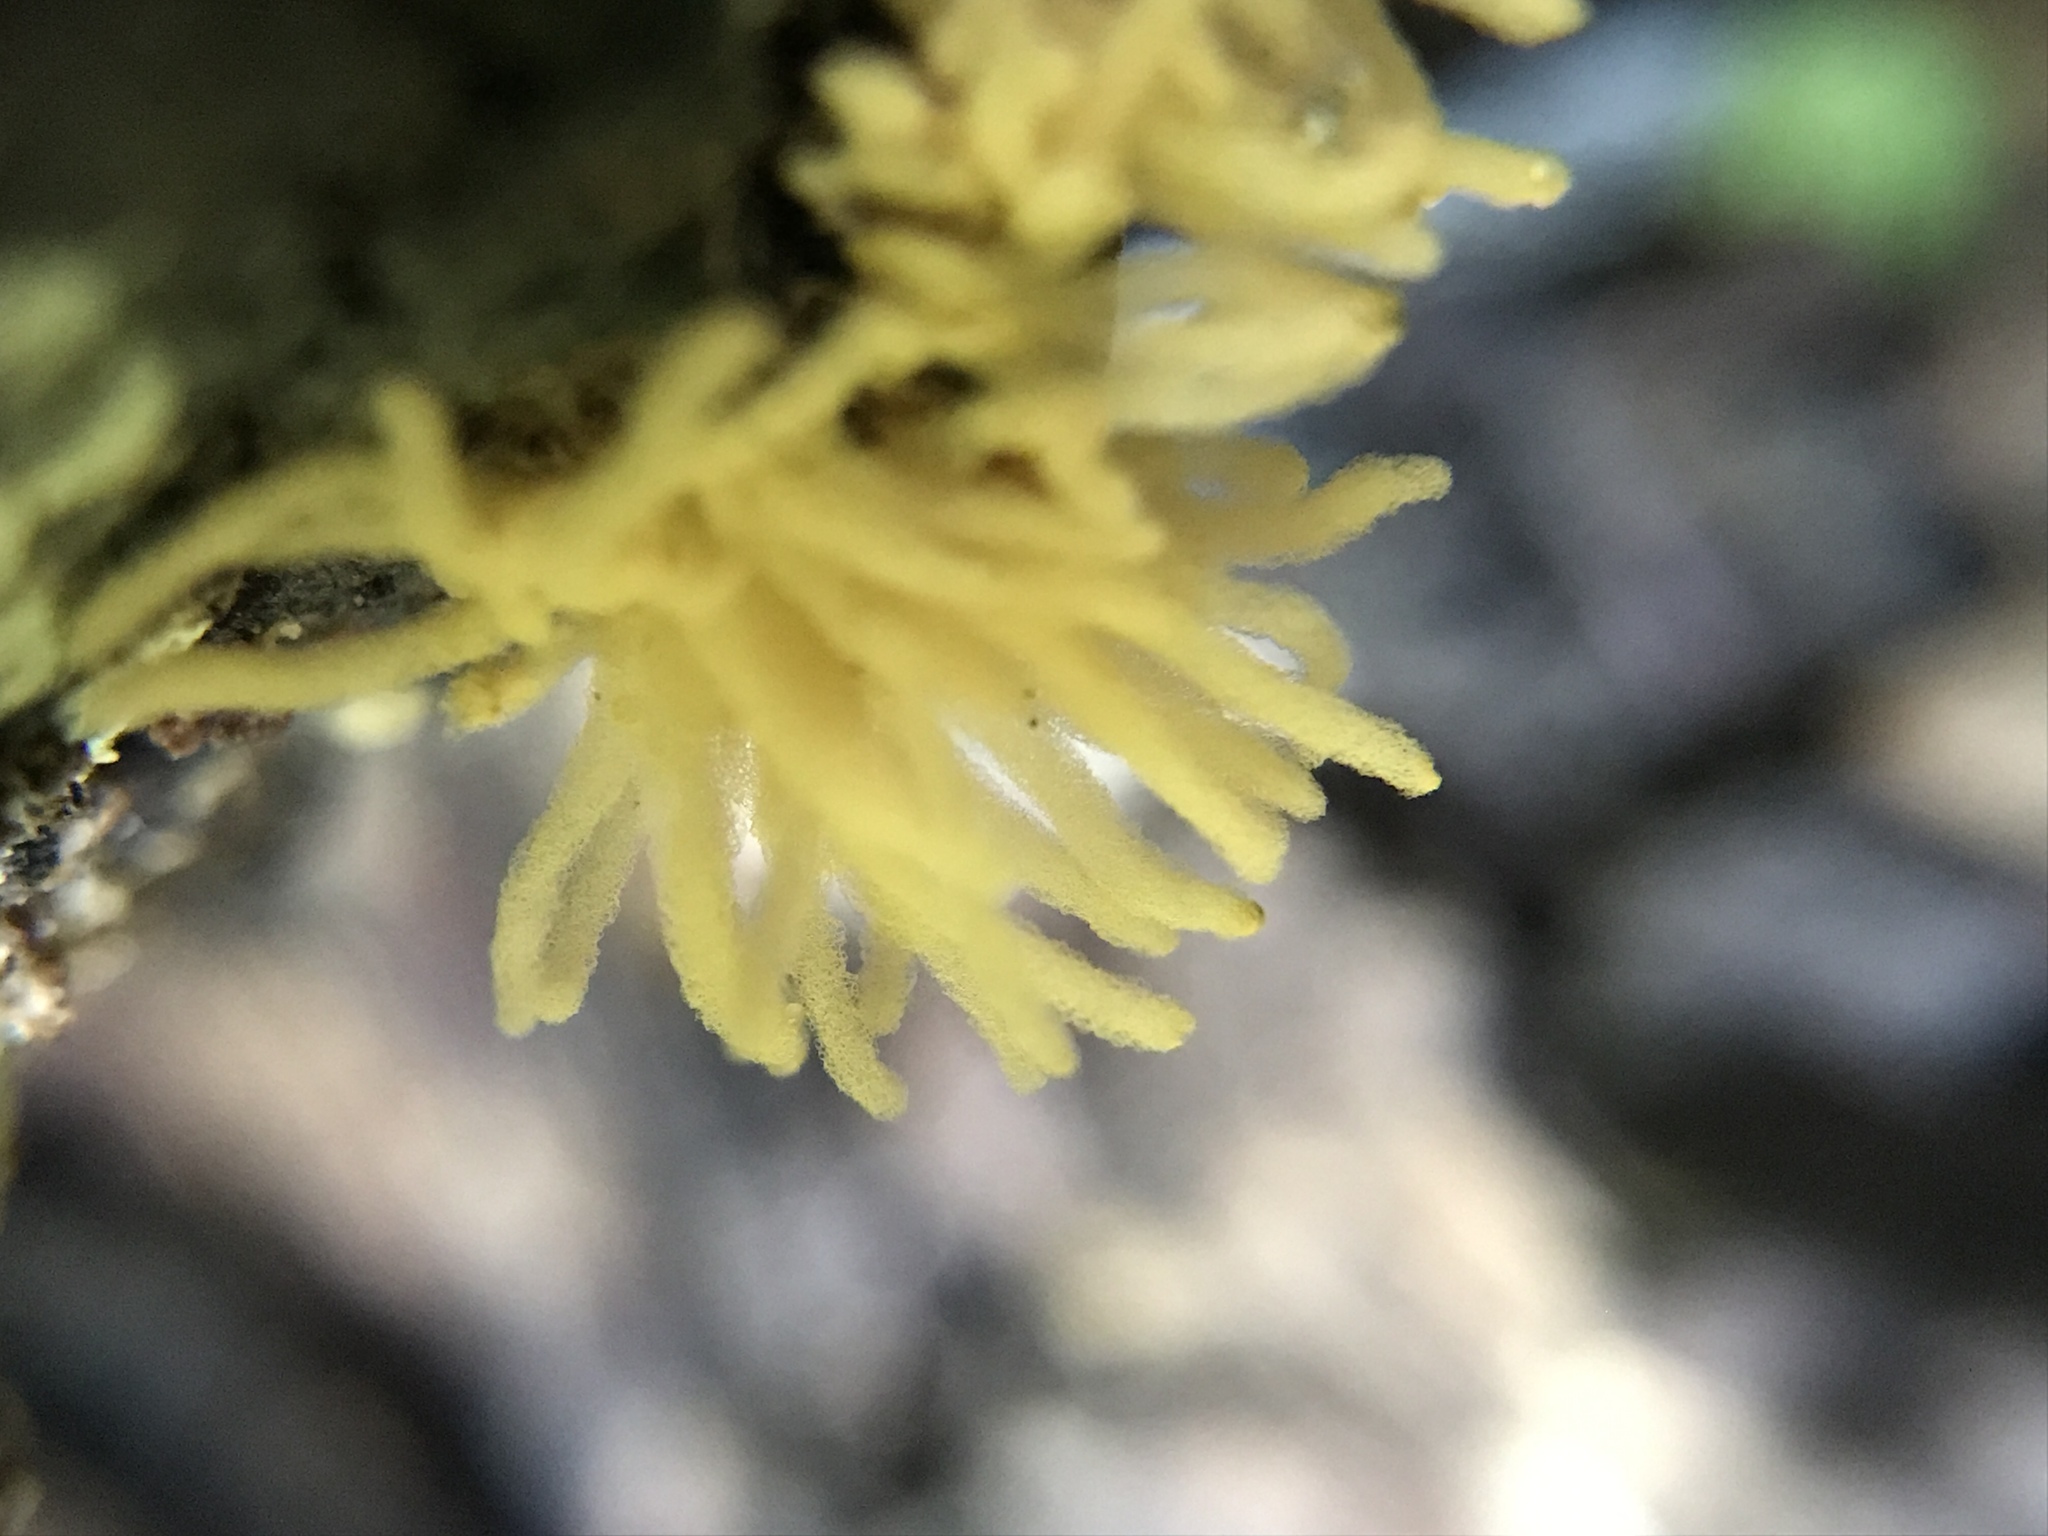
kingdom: Protozoa
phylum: Mycetozoa
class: Myxomycetes
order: Trichiales
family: Arcyriaceae
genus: Arcyria
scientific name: Arcyria obvelata
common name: Yellow carnival candy slime
